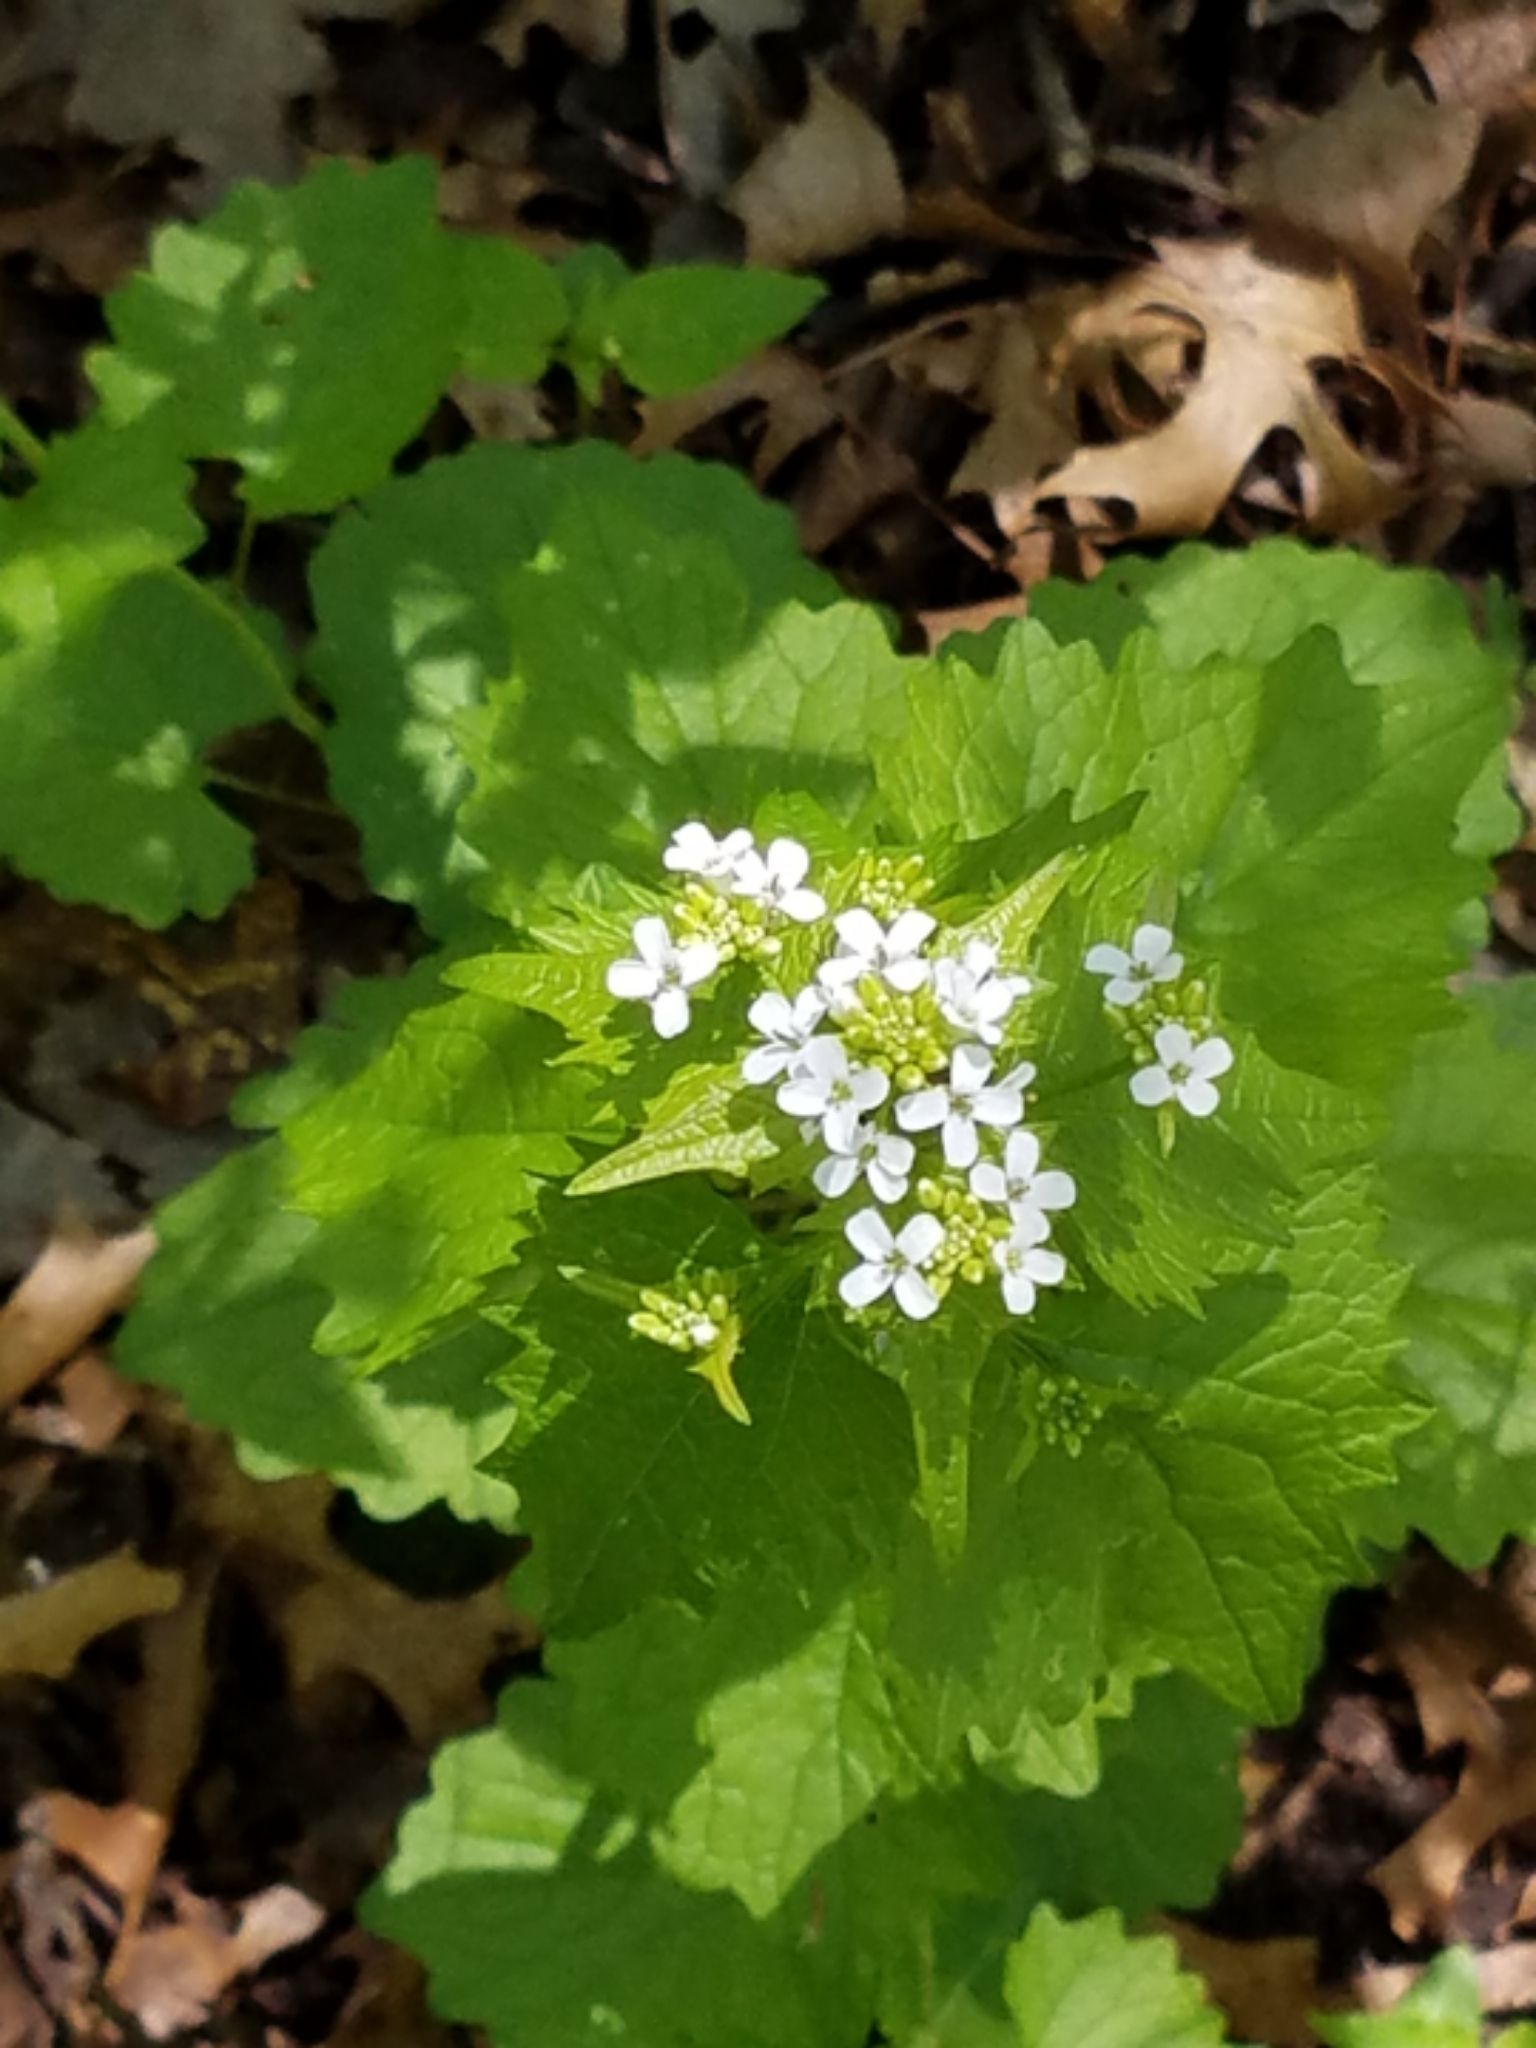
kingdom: Plantae
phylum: Tracheophyta
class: Magnoliopsida
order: Brassicales
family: Brassicaceae
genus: Alliaria
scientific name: Alliaria petiolata
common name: Garlic mustard
